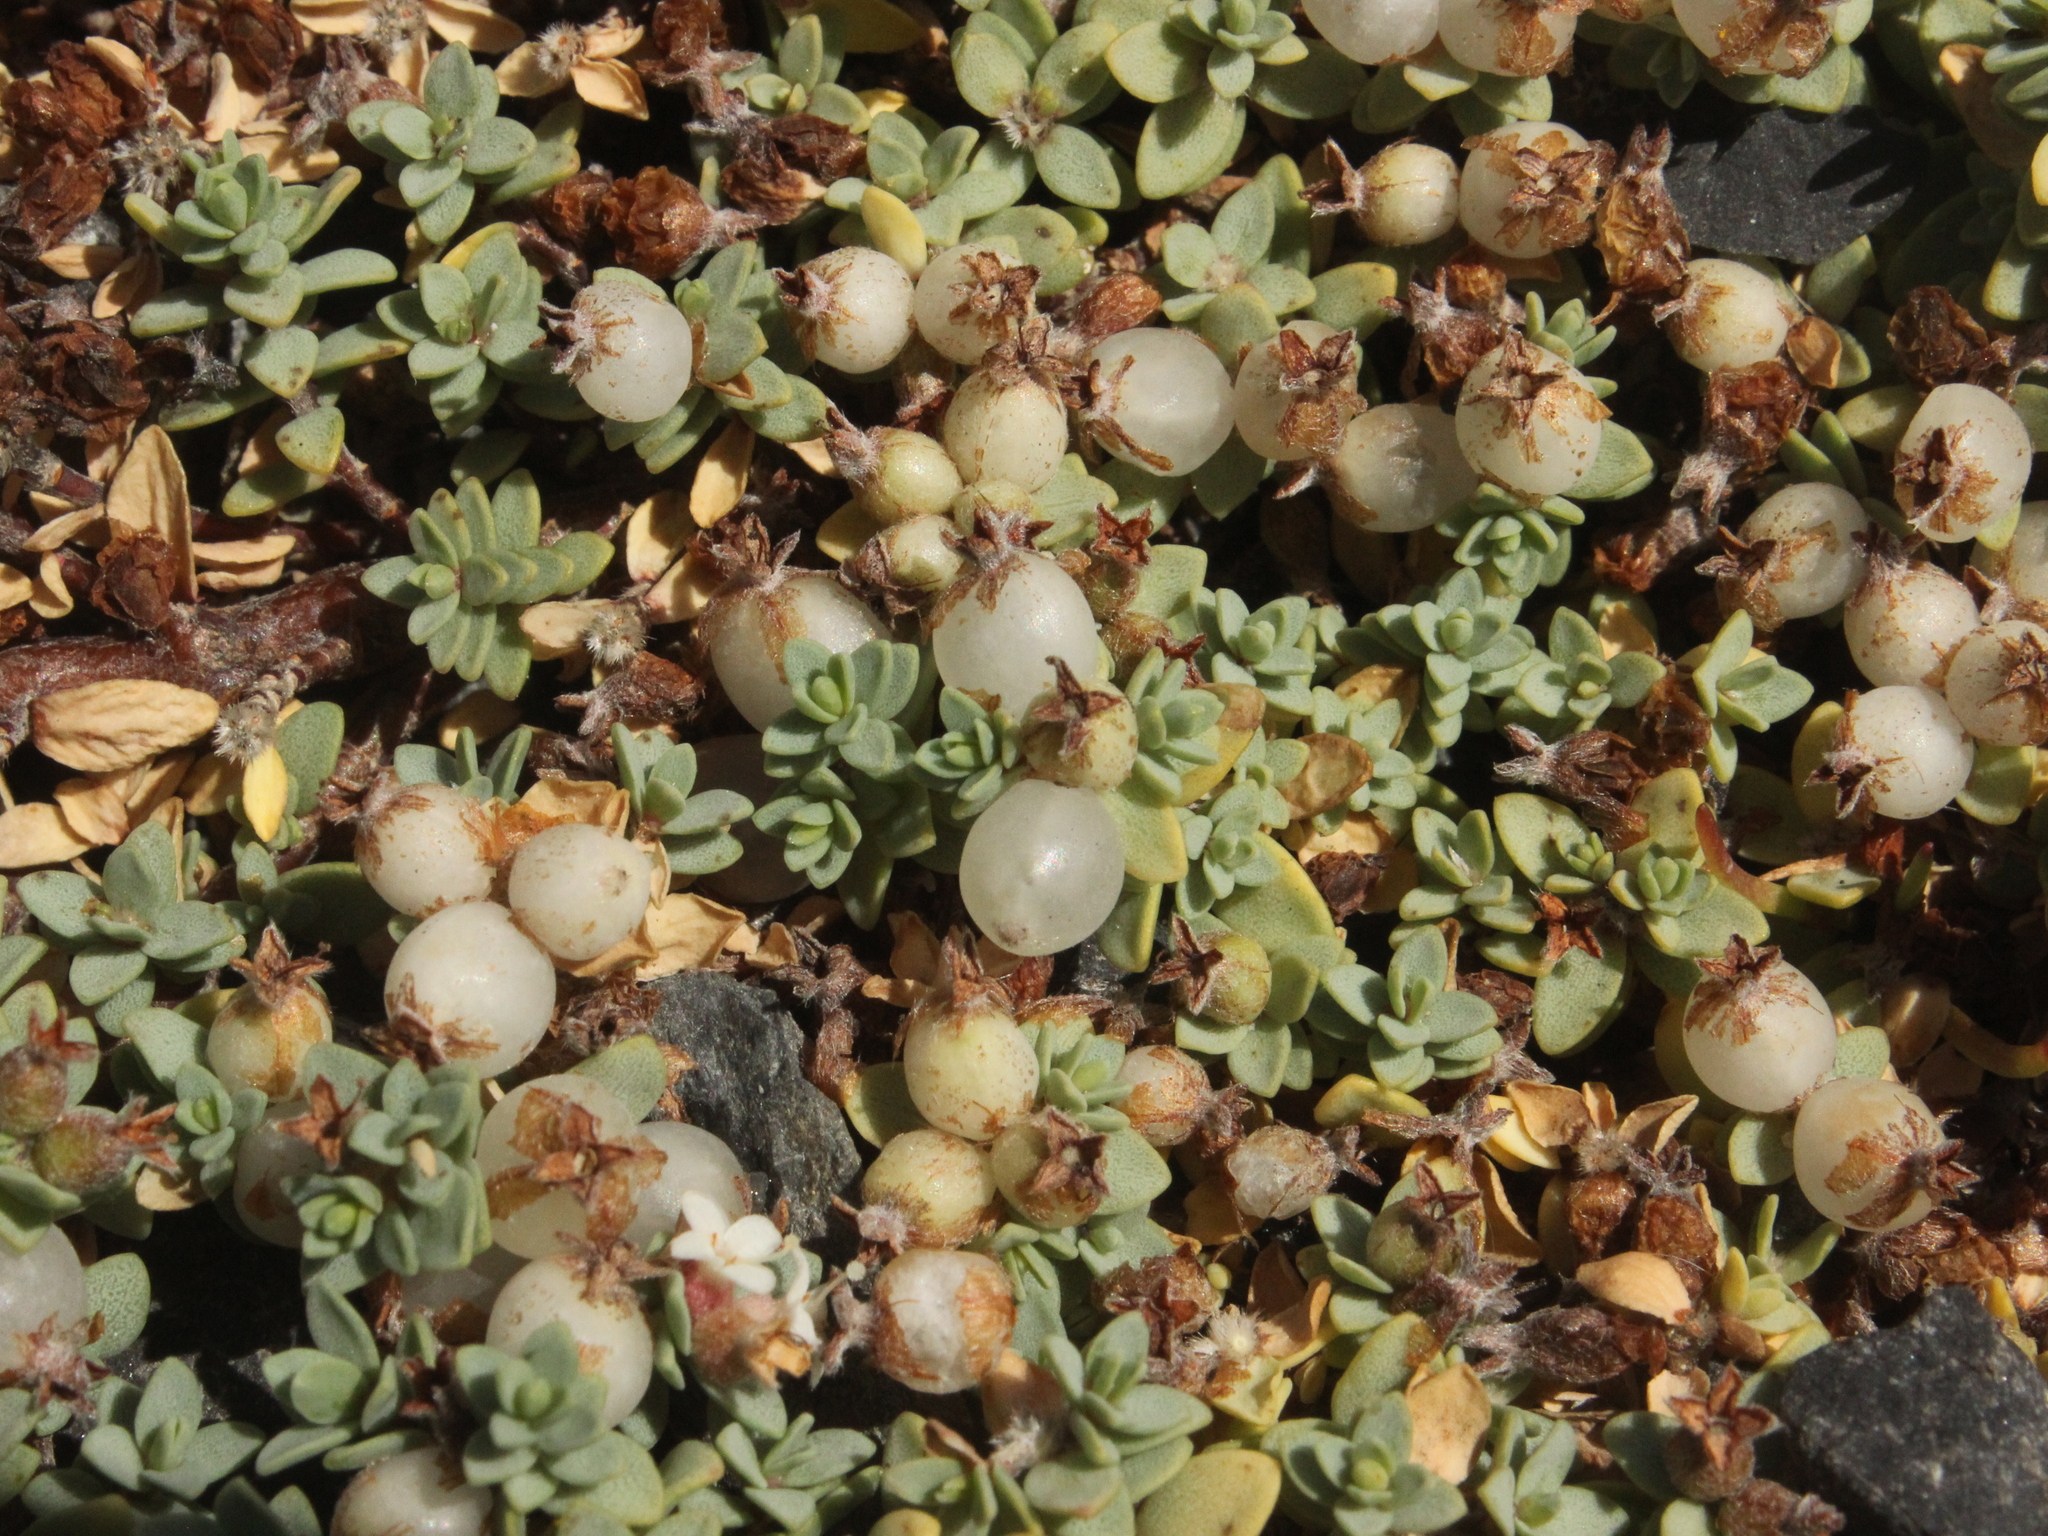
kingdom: Plantae
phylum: Tracheophyta
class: Magnoliopsida
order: Malvales
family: Thymelaeaceae
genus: Pimelea
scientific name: Pimelea prostrata
